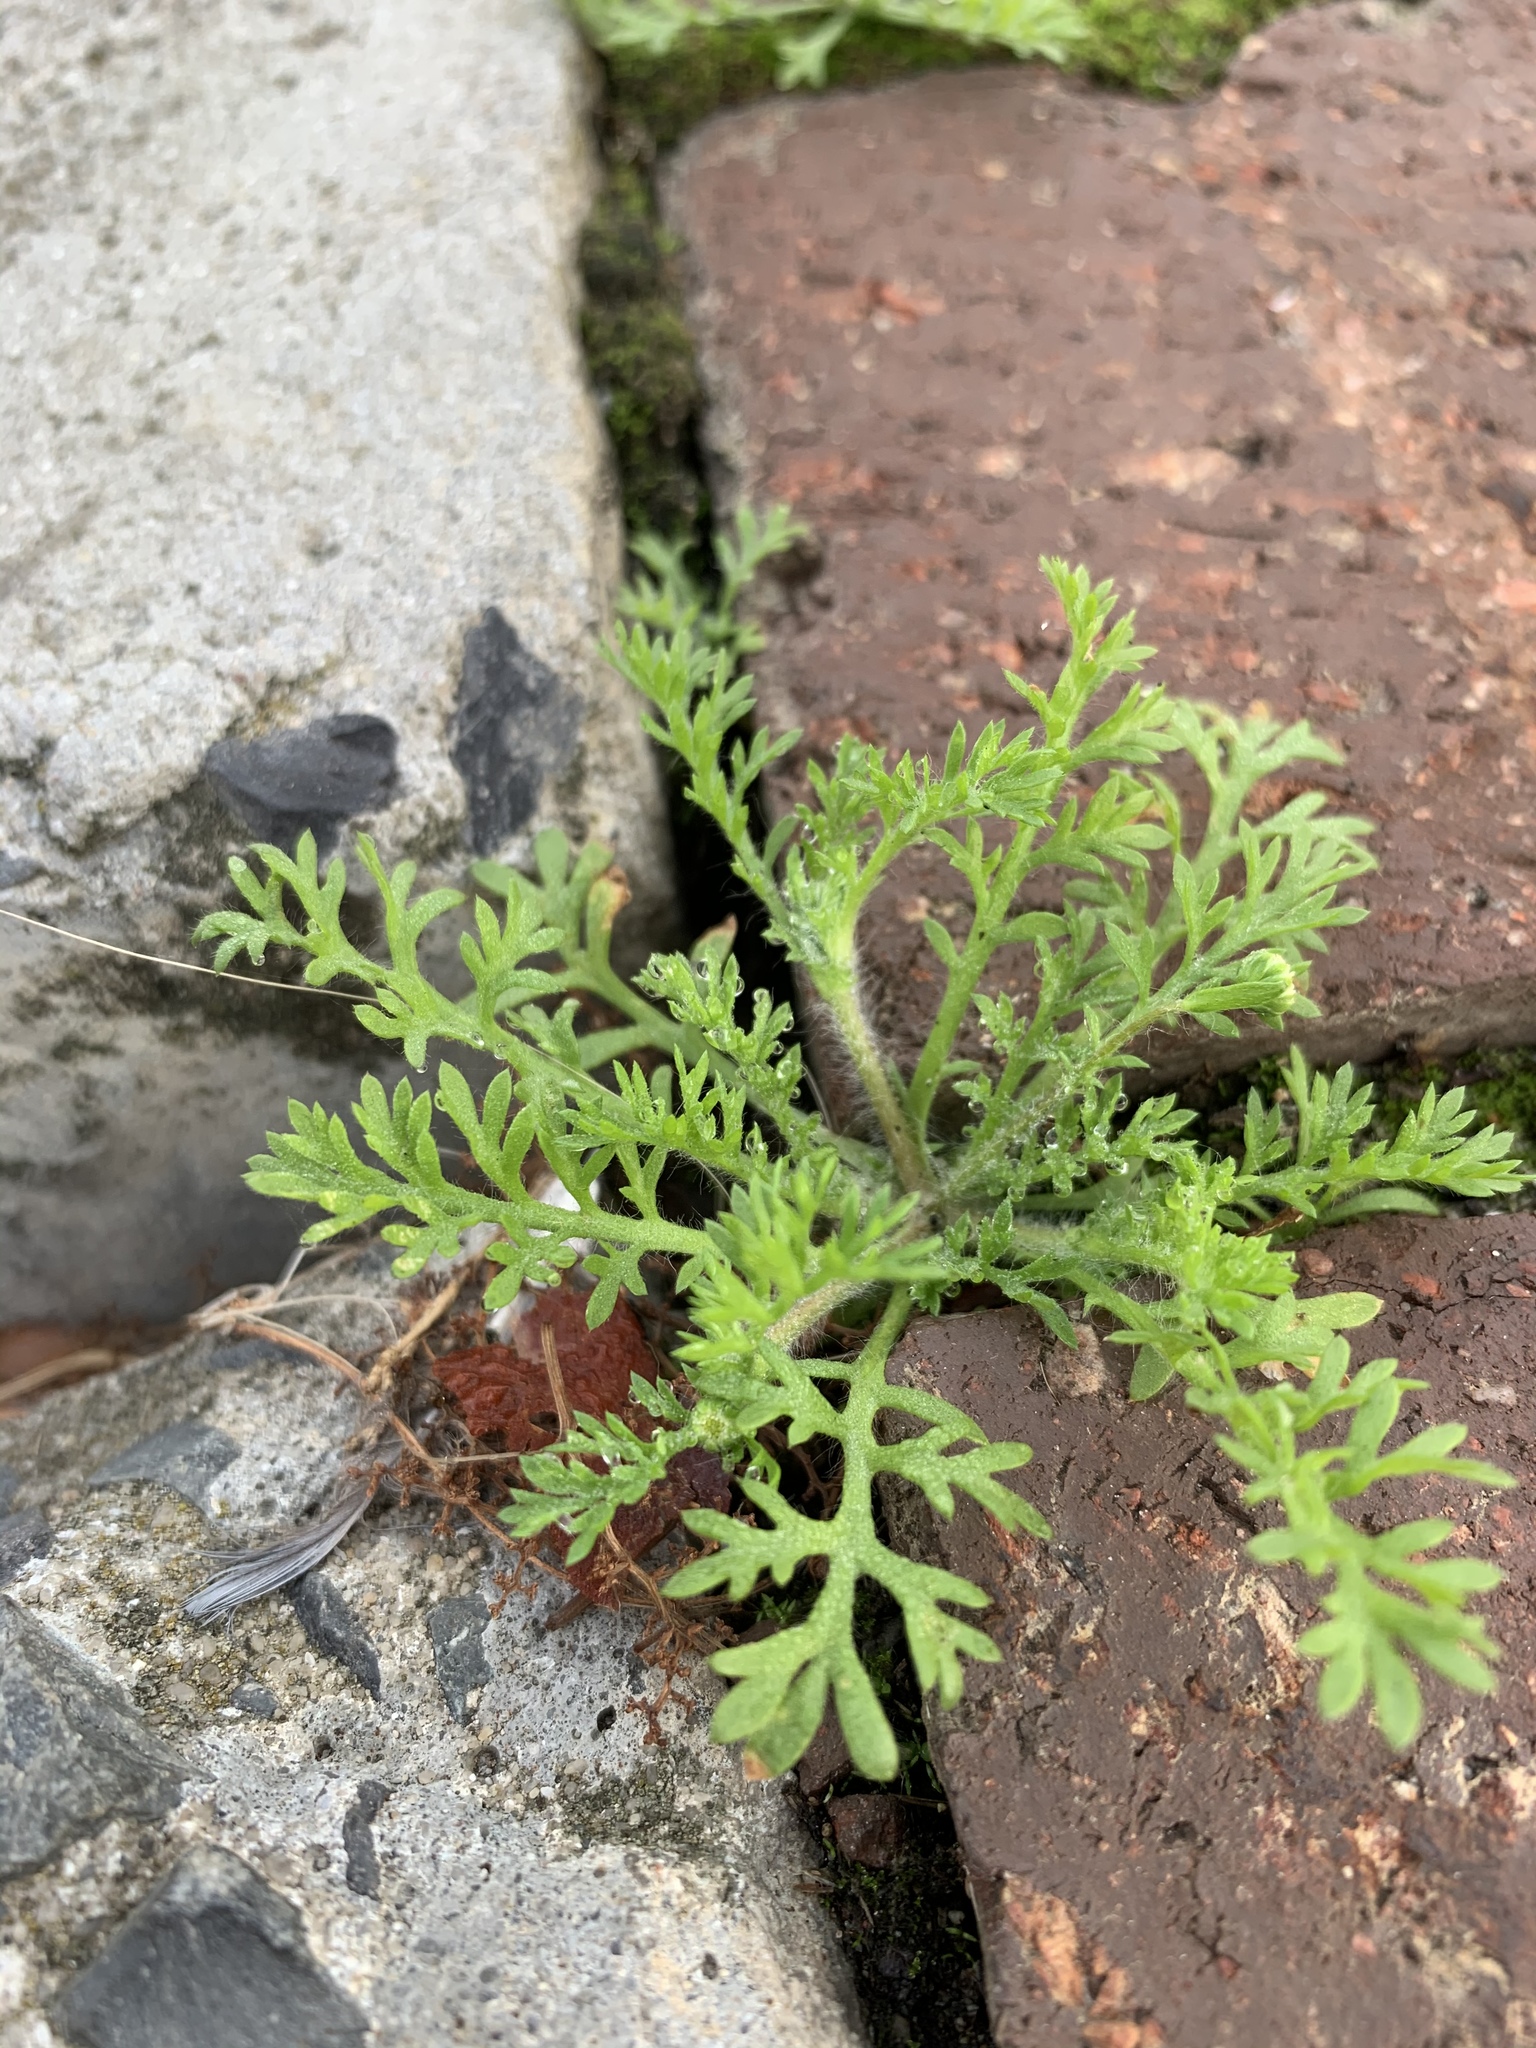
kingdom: Plantae
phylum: Tracheophyta
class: Magnoliopsida
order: Asterales
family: Asteraceae
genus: Cotula
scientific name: Cotula turbinata
